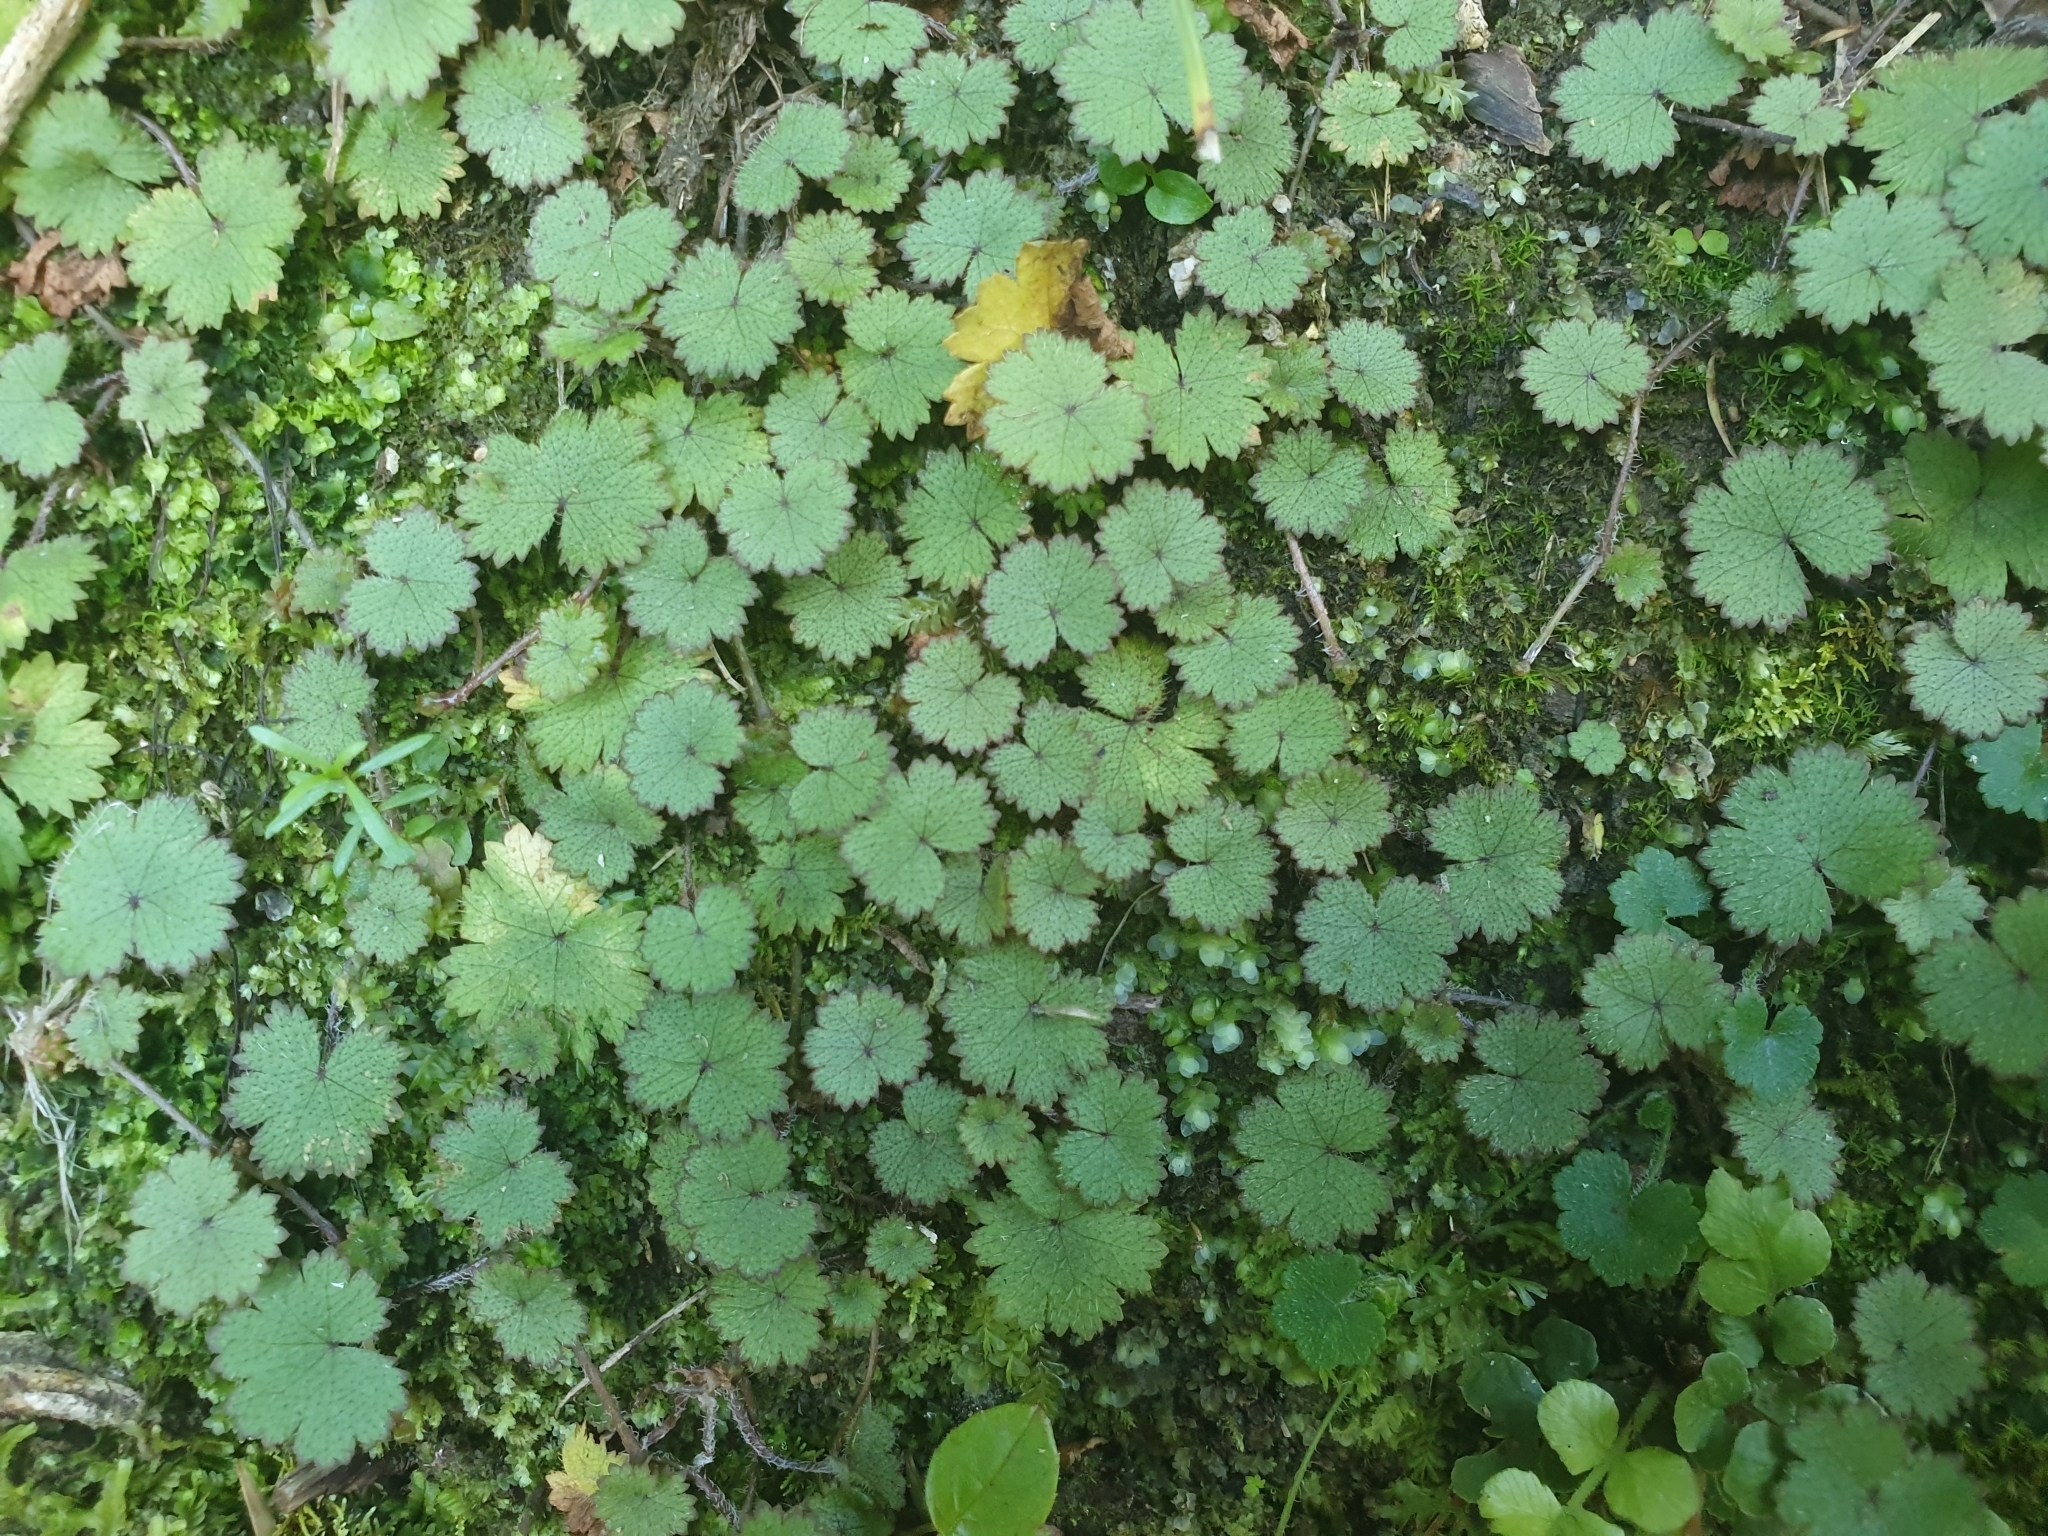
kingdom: Plantae
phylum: Tracheophyta
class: Magnoliopsida
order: Apiales
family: Araliaceae
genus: Hydrocotyle
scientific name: Hydrocotyle moschata
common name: Hairy pennywort
